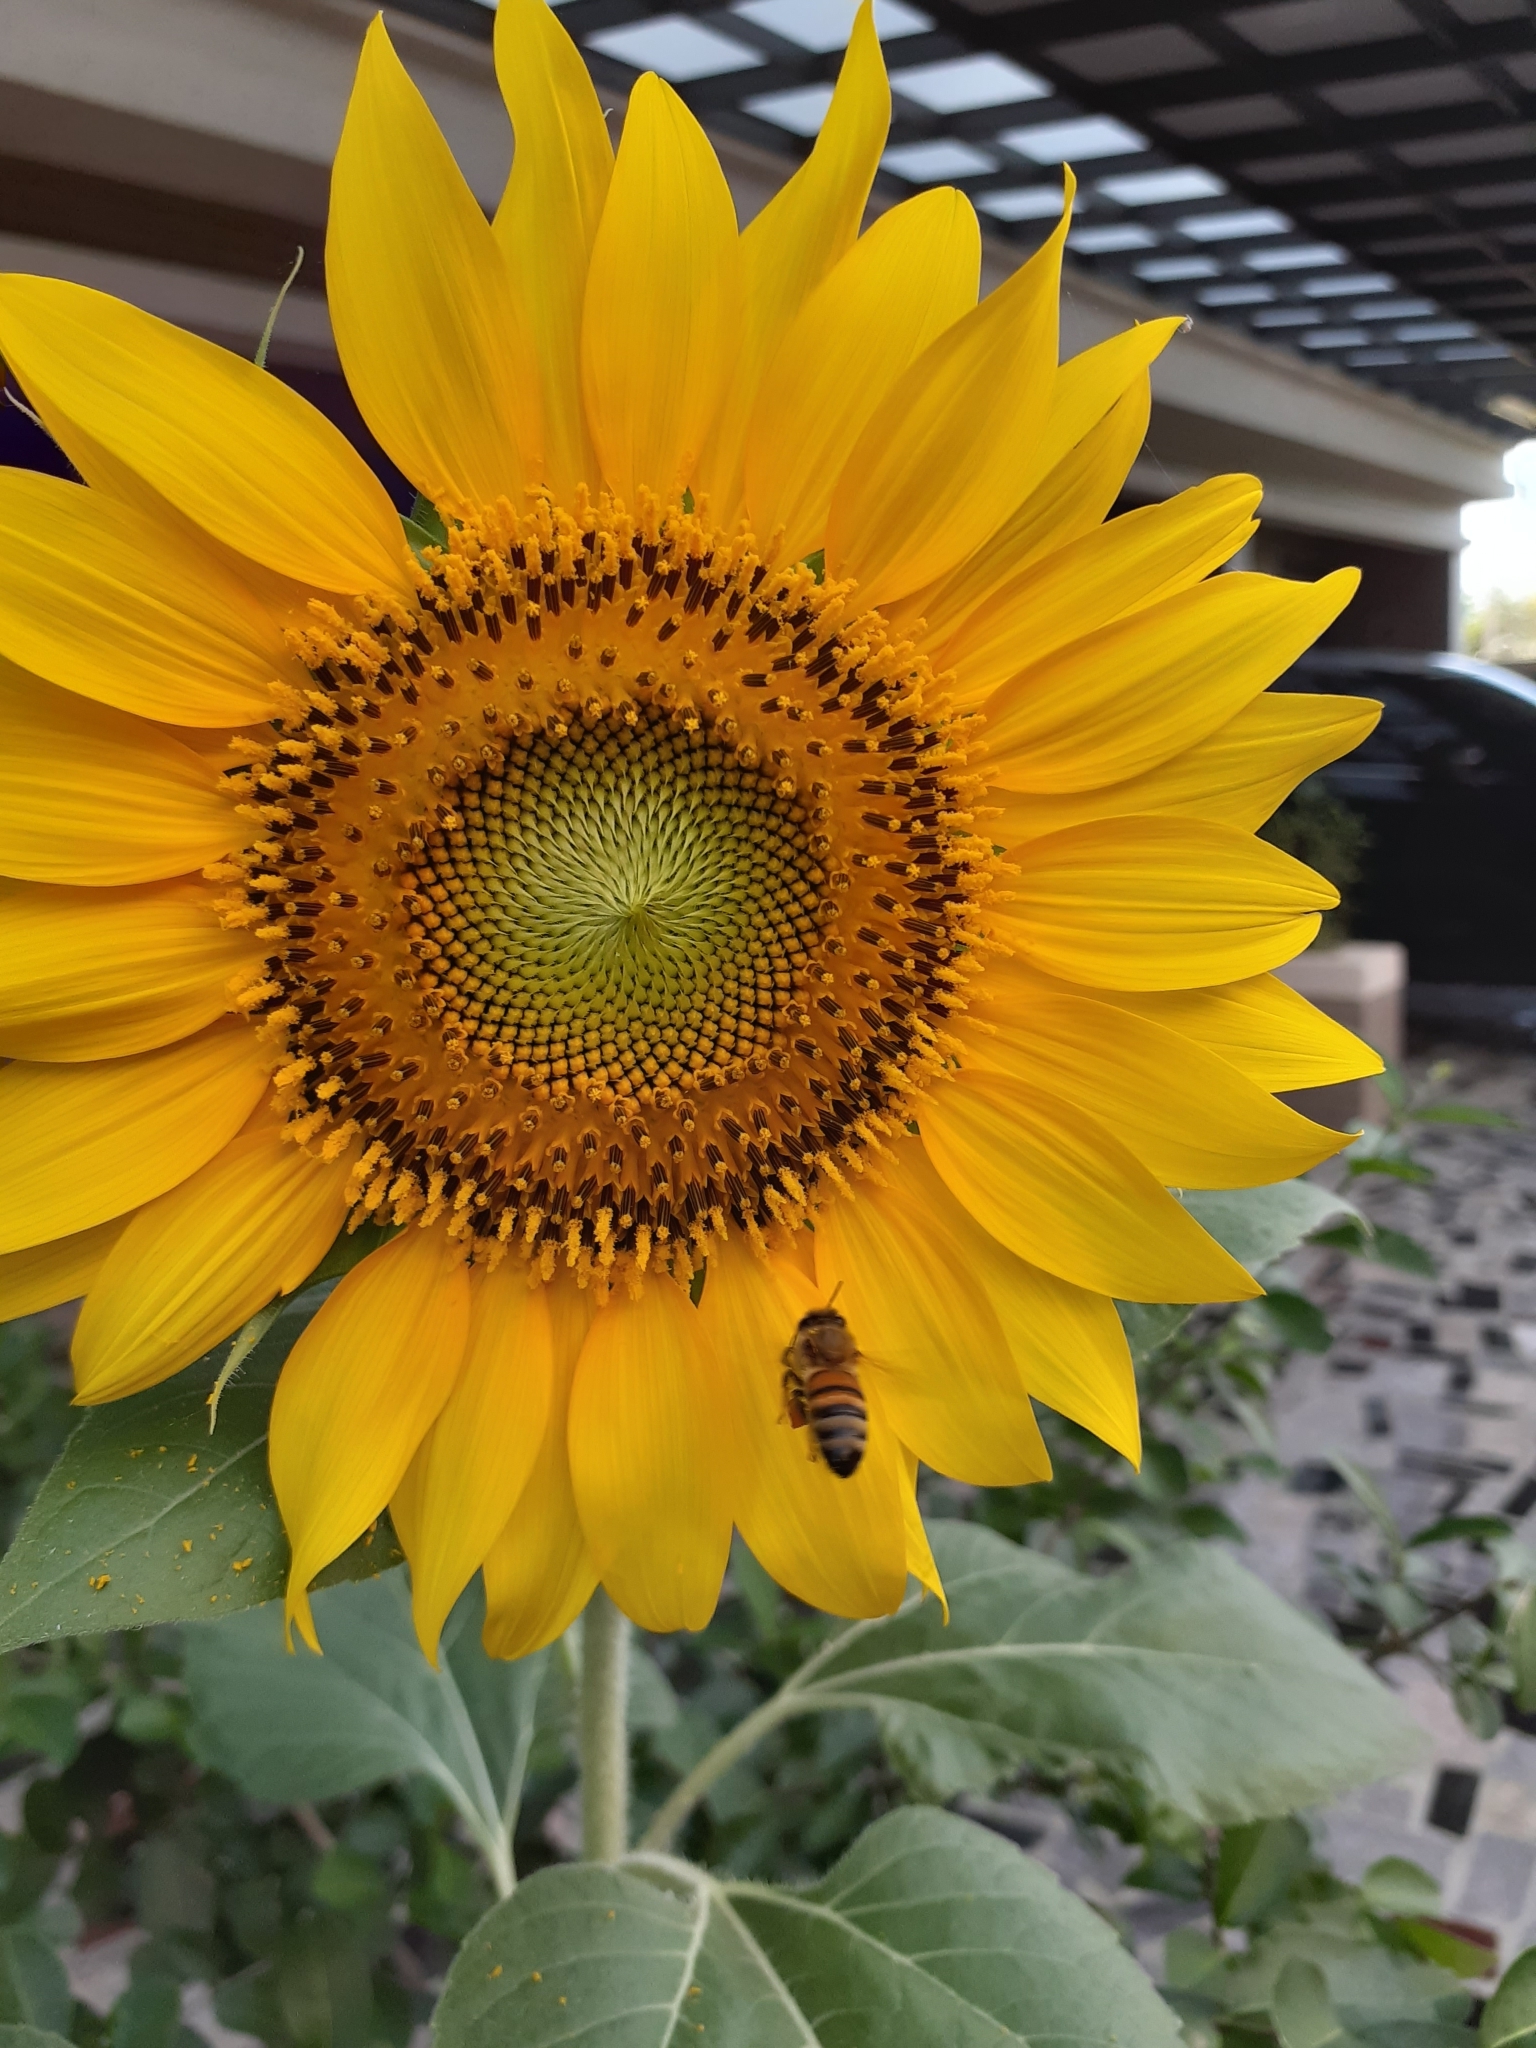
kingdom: Animalia
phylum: Arthropoda
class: Insecta
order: Hymenoptera
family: Apidae
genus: Apis
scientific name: Apis mellifera
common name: Honey bee
